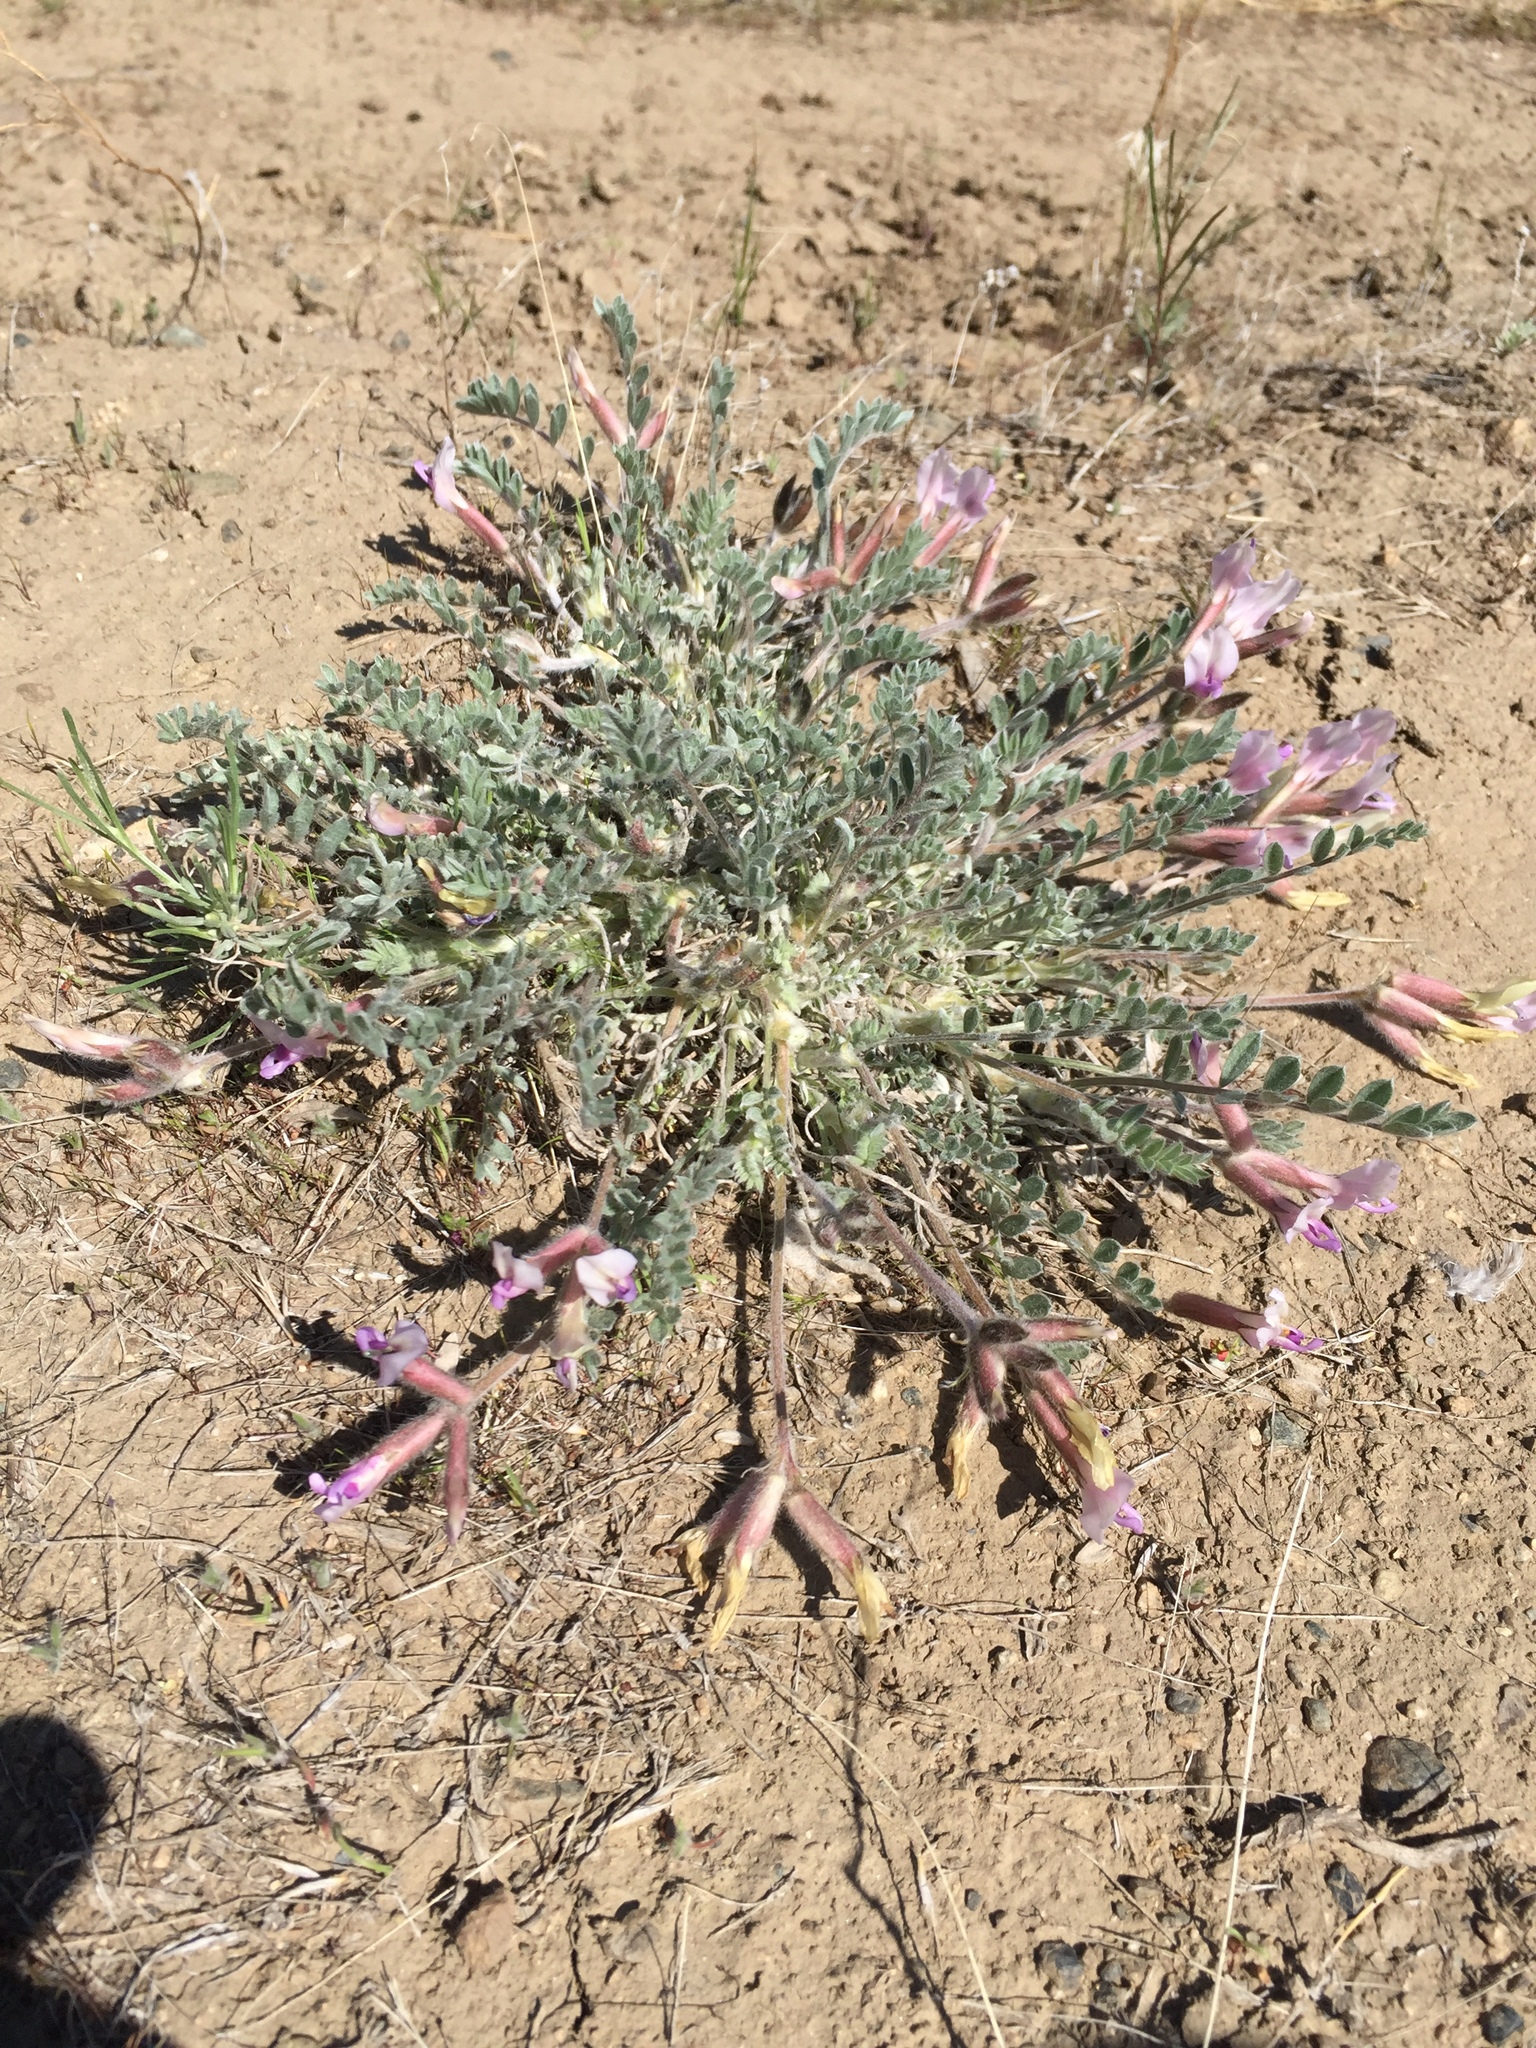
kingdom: Plantae
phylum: Tracheophyta
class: Magnoliopsida
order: Fabales
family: Fabaceae
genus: Astragalus
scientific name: Astragalus purshii
